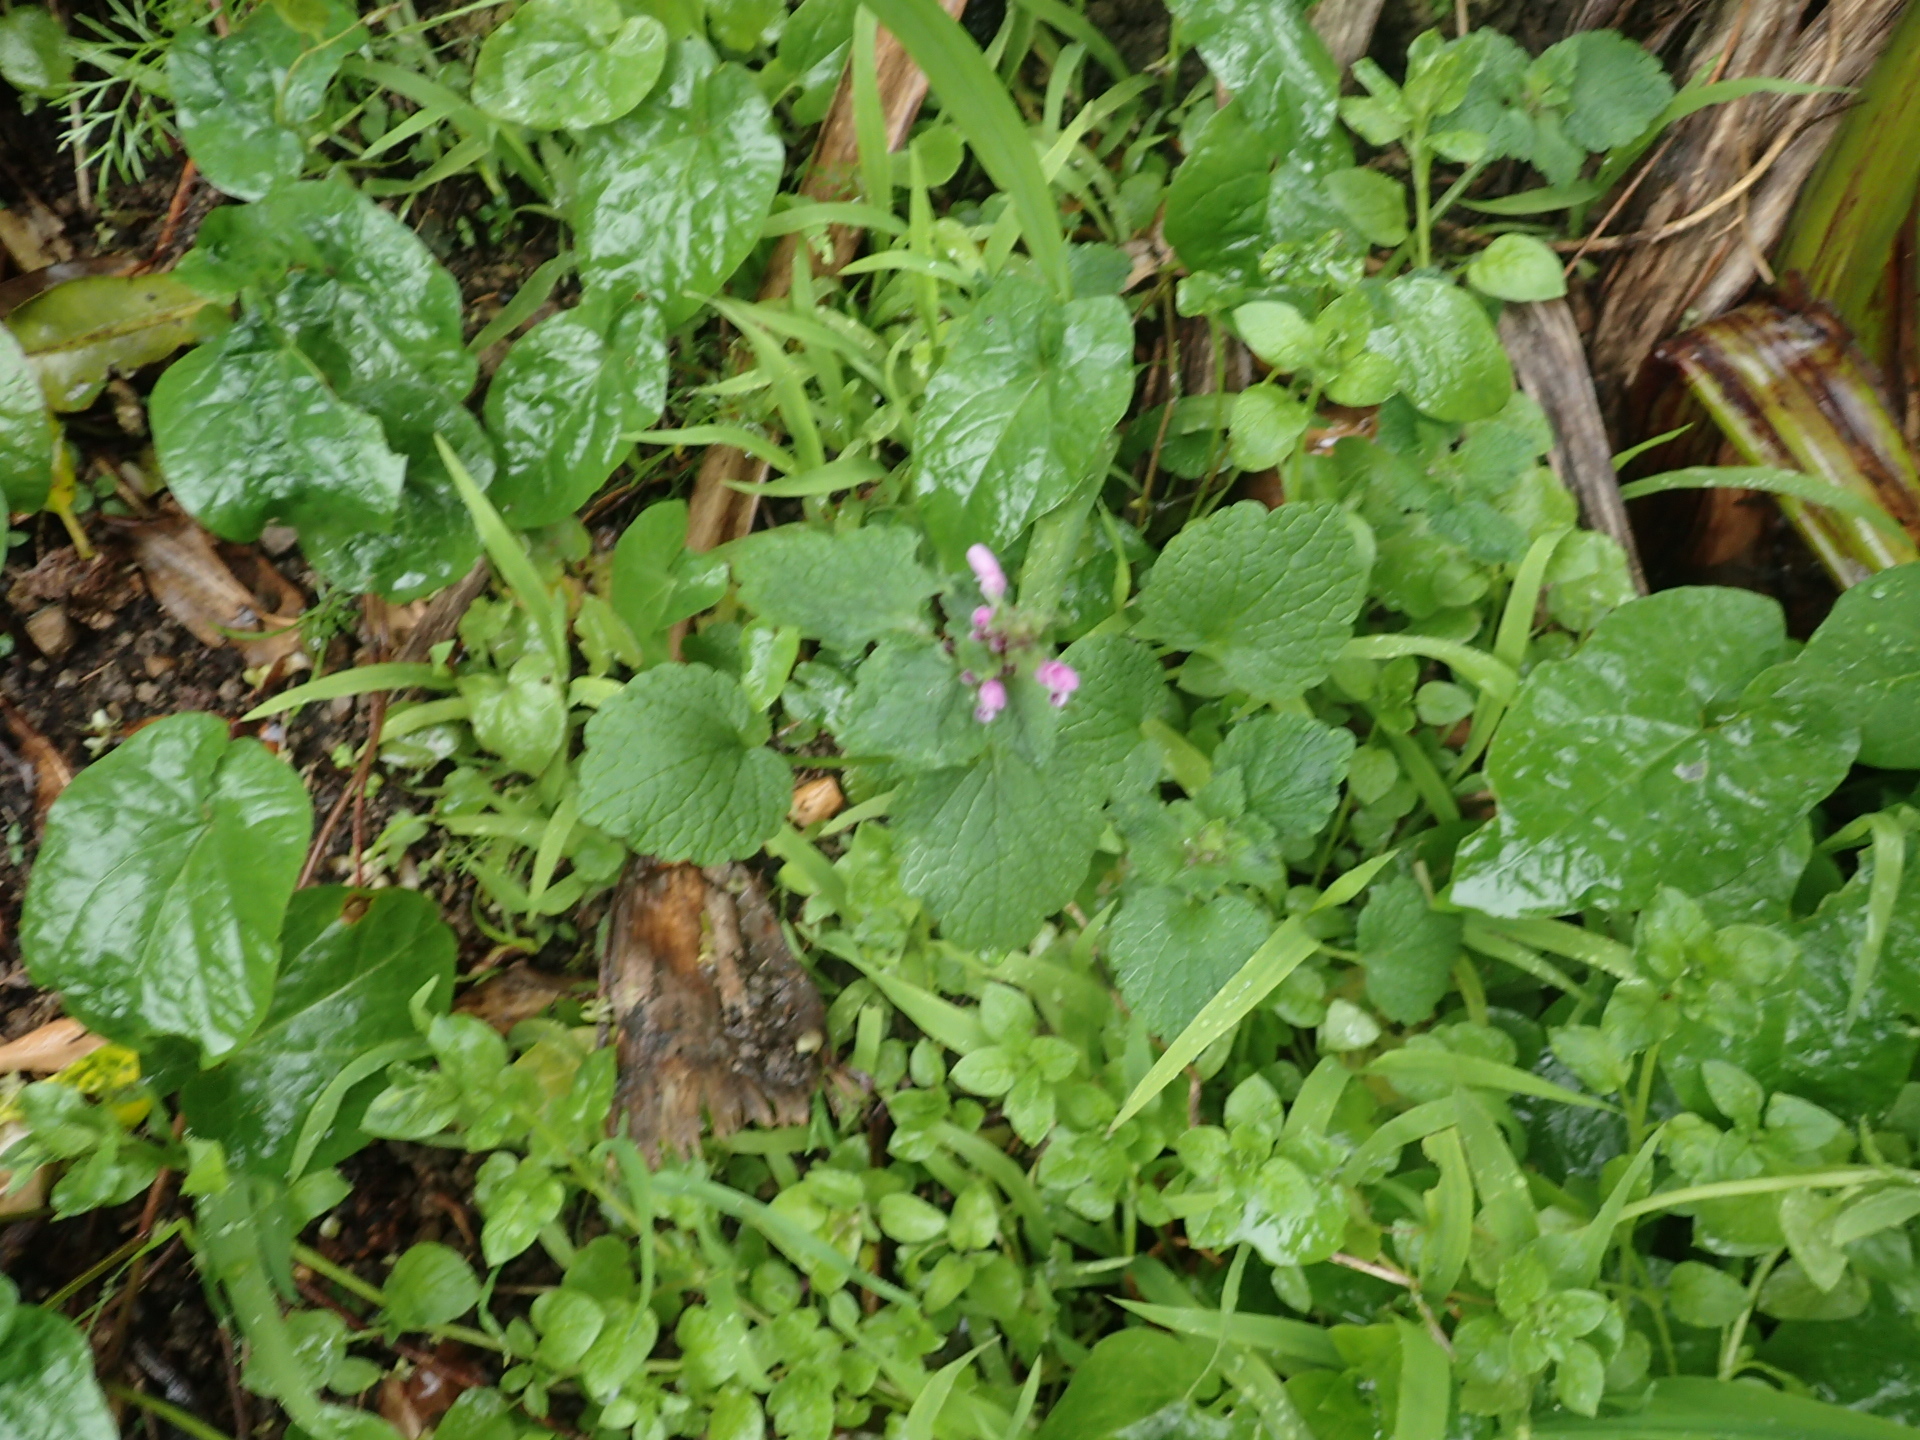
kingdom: Plantae
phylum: Tracheophyta
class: Magnoliopsida
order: Lamiales
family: Lamiaceae
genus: Lamium
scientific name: Lamium purpureum
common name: Red dead-nettle
